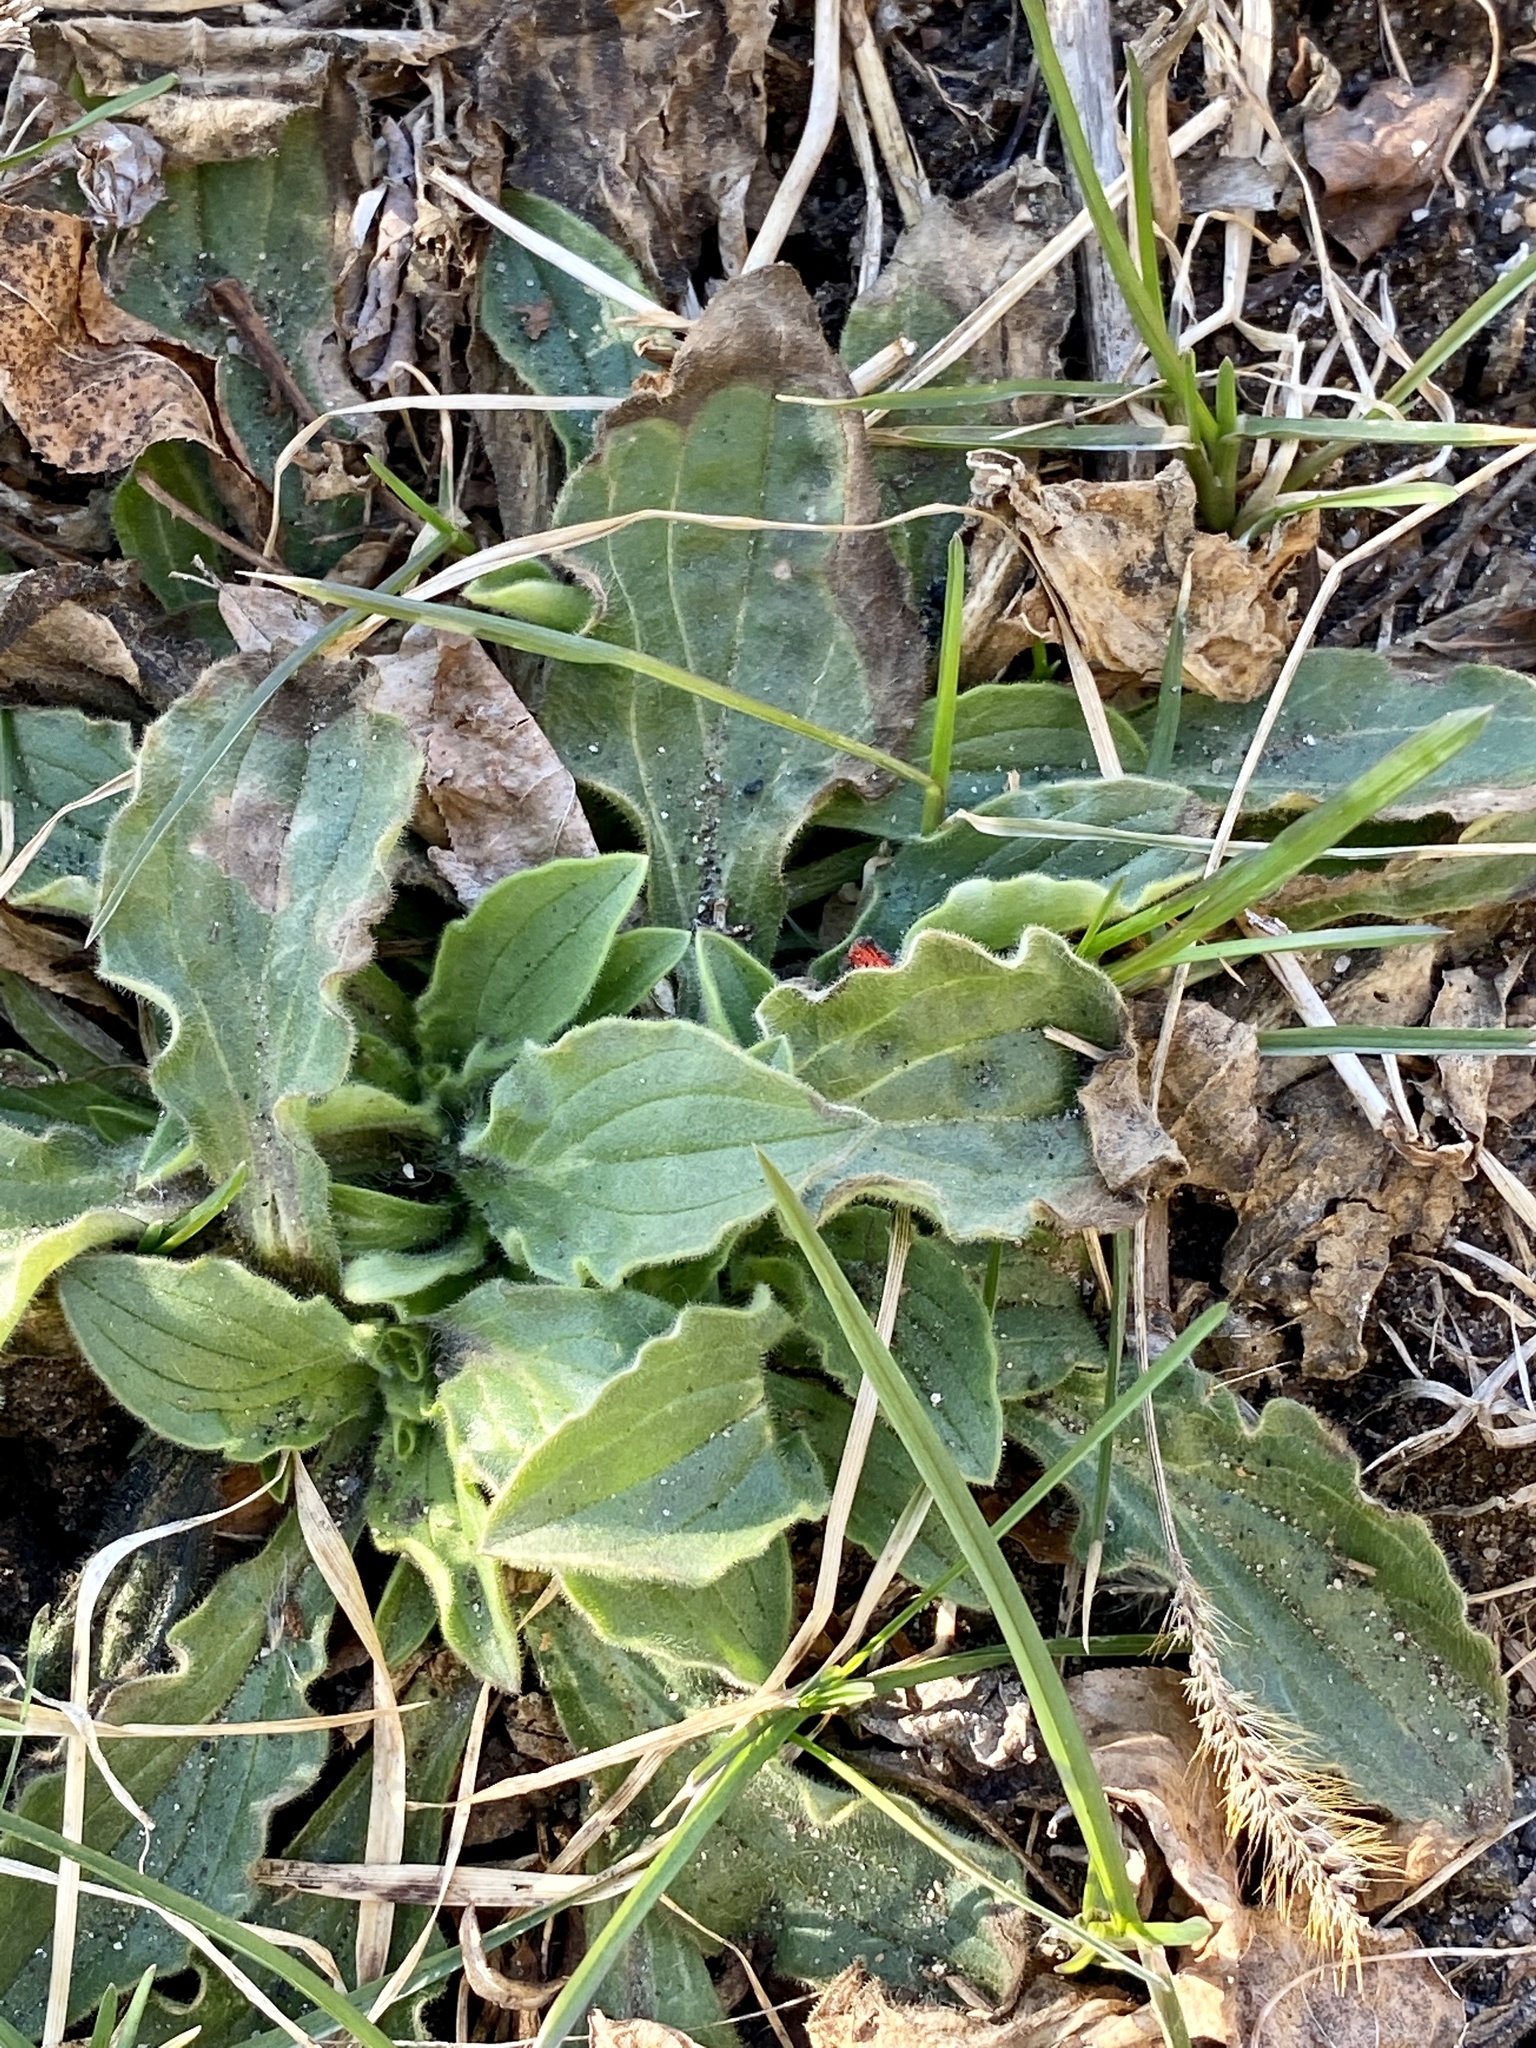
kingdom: Plantae
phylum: Tracheophyta
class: Magnoliopsida
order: Caryophyllales
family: Caryophyllaceae
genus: Silene
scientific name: Silene latifolia
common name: White campion
